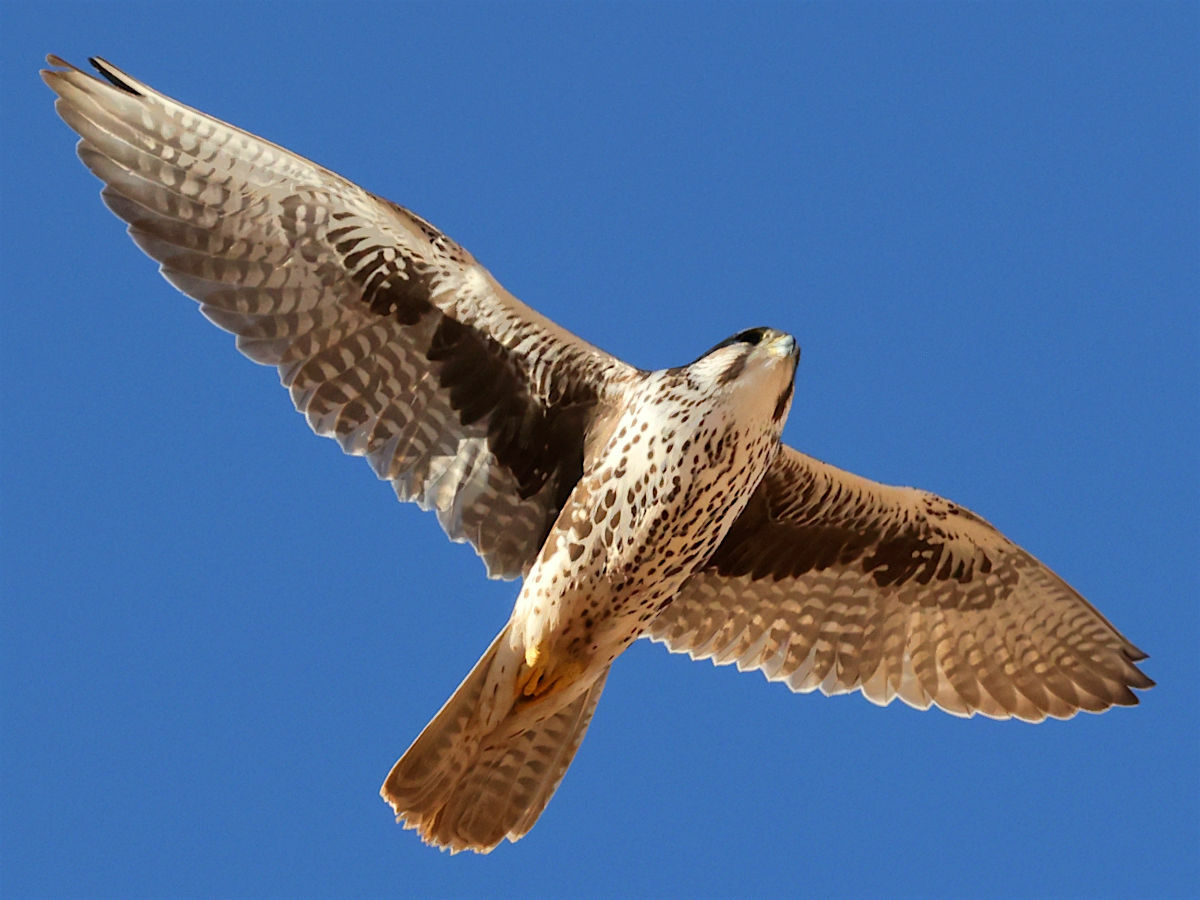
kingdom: Animalia
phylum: Chordata
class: Aves
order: Falconiformes
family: Falconidae
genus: Falco
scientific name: Falco mexicanus
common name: Prairie falcon
